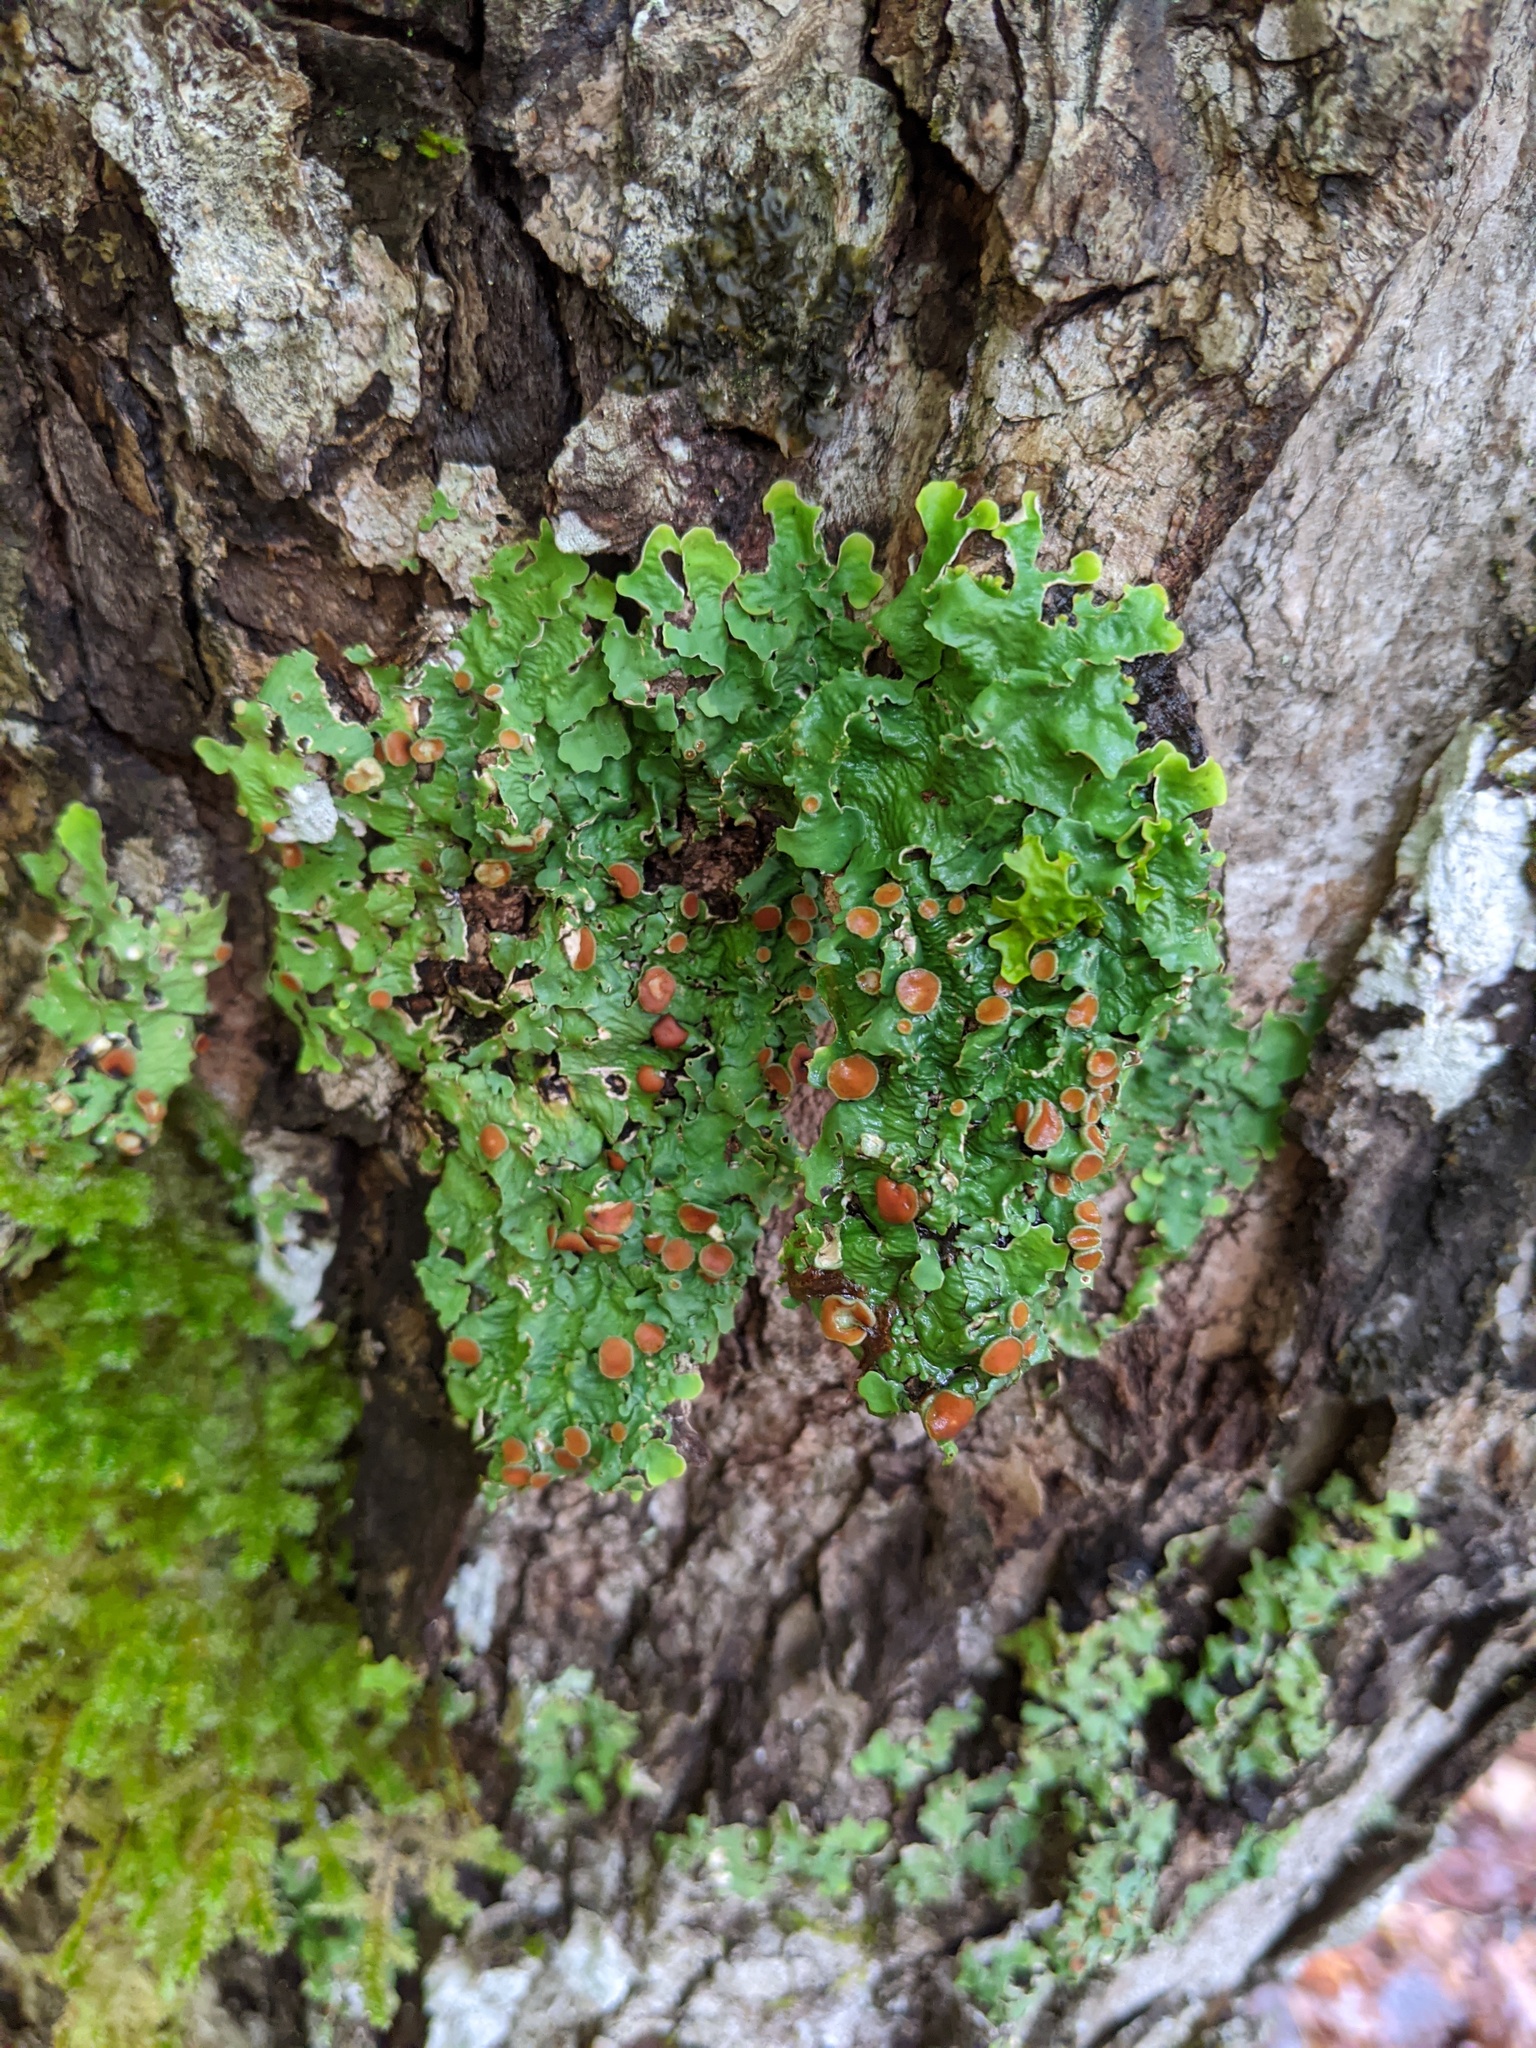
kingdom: Fungi
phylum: Ascomycota
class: Lecanoromycetes
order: Peltigerales
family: Lobariaceae
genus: Ricasolia
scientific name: Ricasolia quercizans
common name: Smooth lungwort
